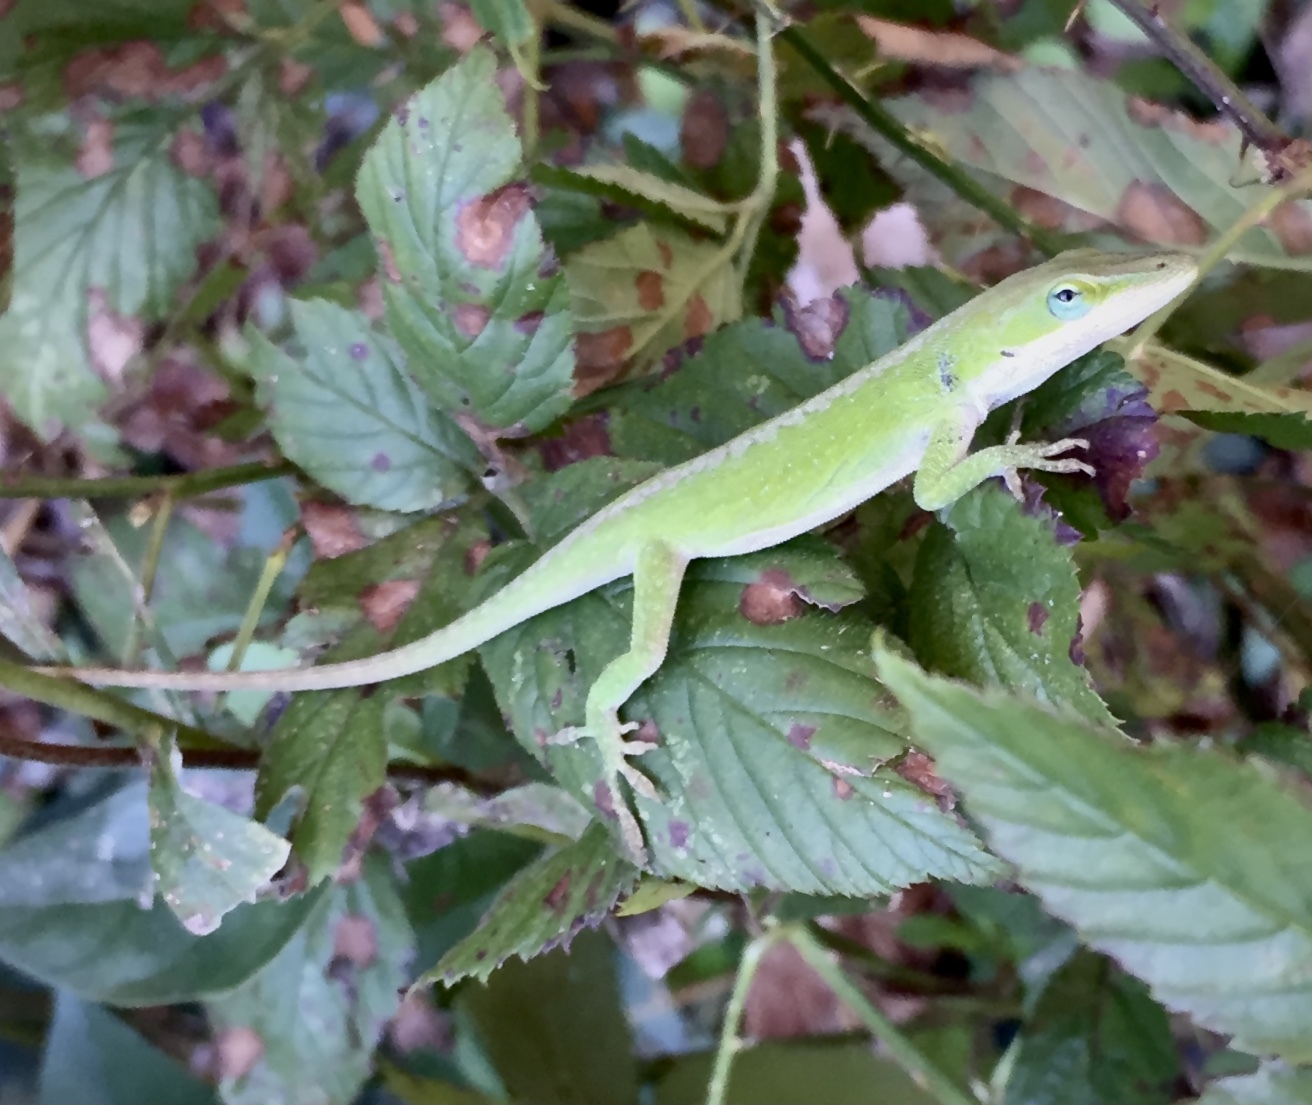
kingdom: Animalia
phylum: Chordata
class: Squamata
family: Dactyloidae
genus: Anolis
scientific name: Anolis carolinensis
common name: Green anole
